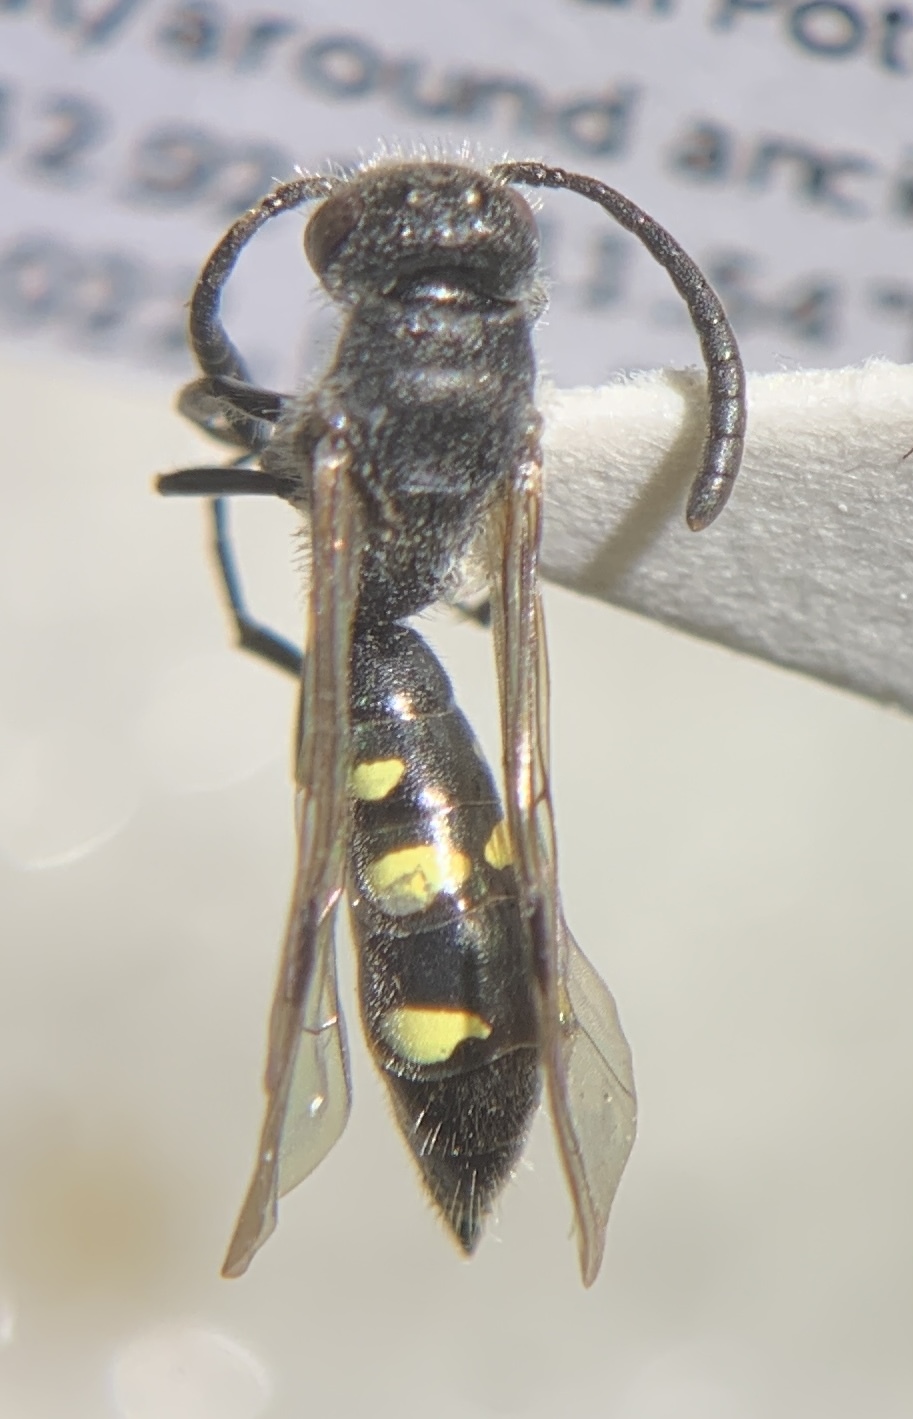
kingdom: Animalia
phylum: Arthropoda
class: Insecta
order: Hymenoptera
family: Sapygidae
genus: Monosapyga
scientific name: Monosapyga clavicornis
